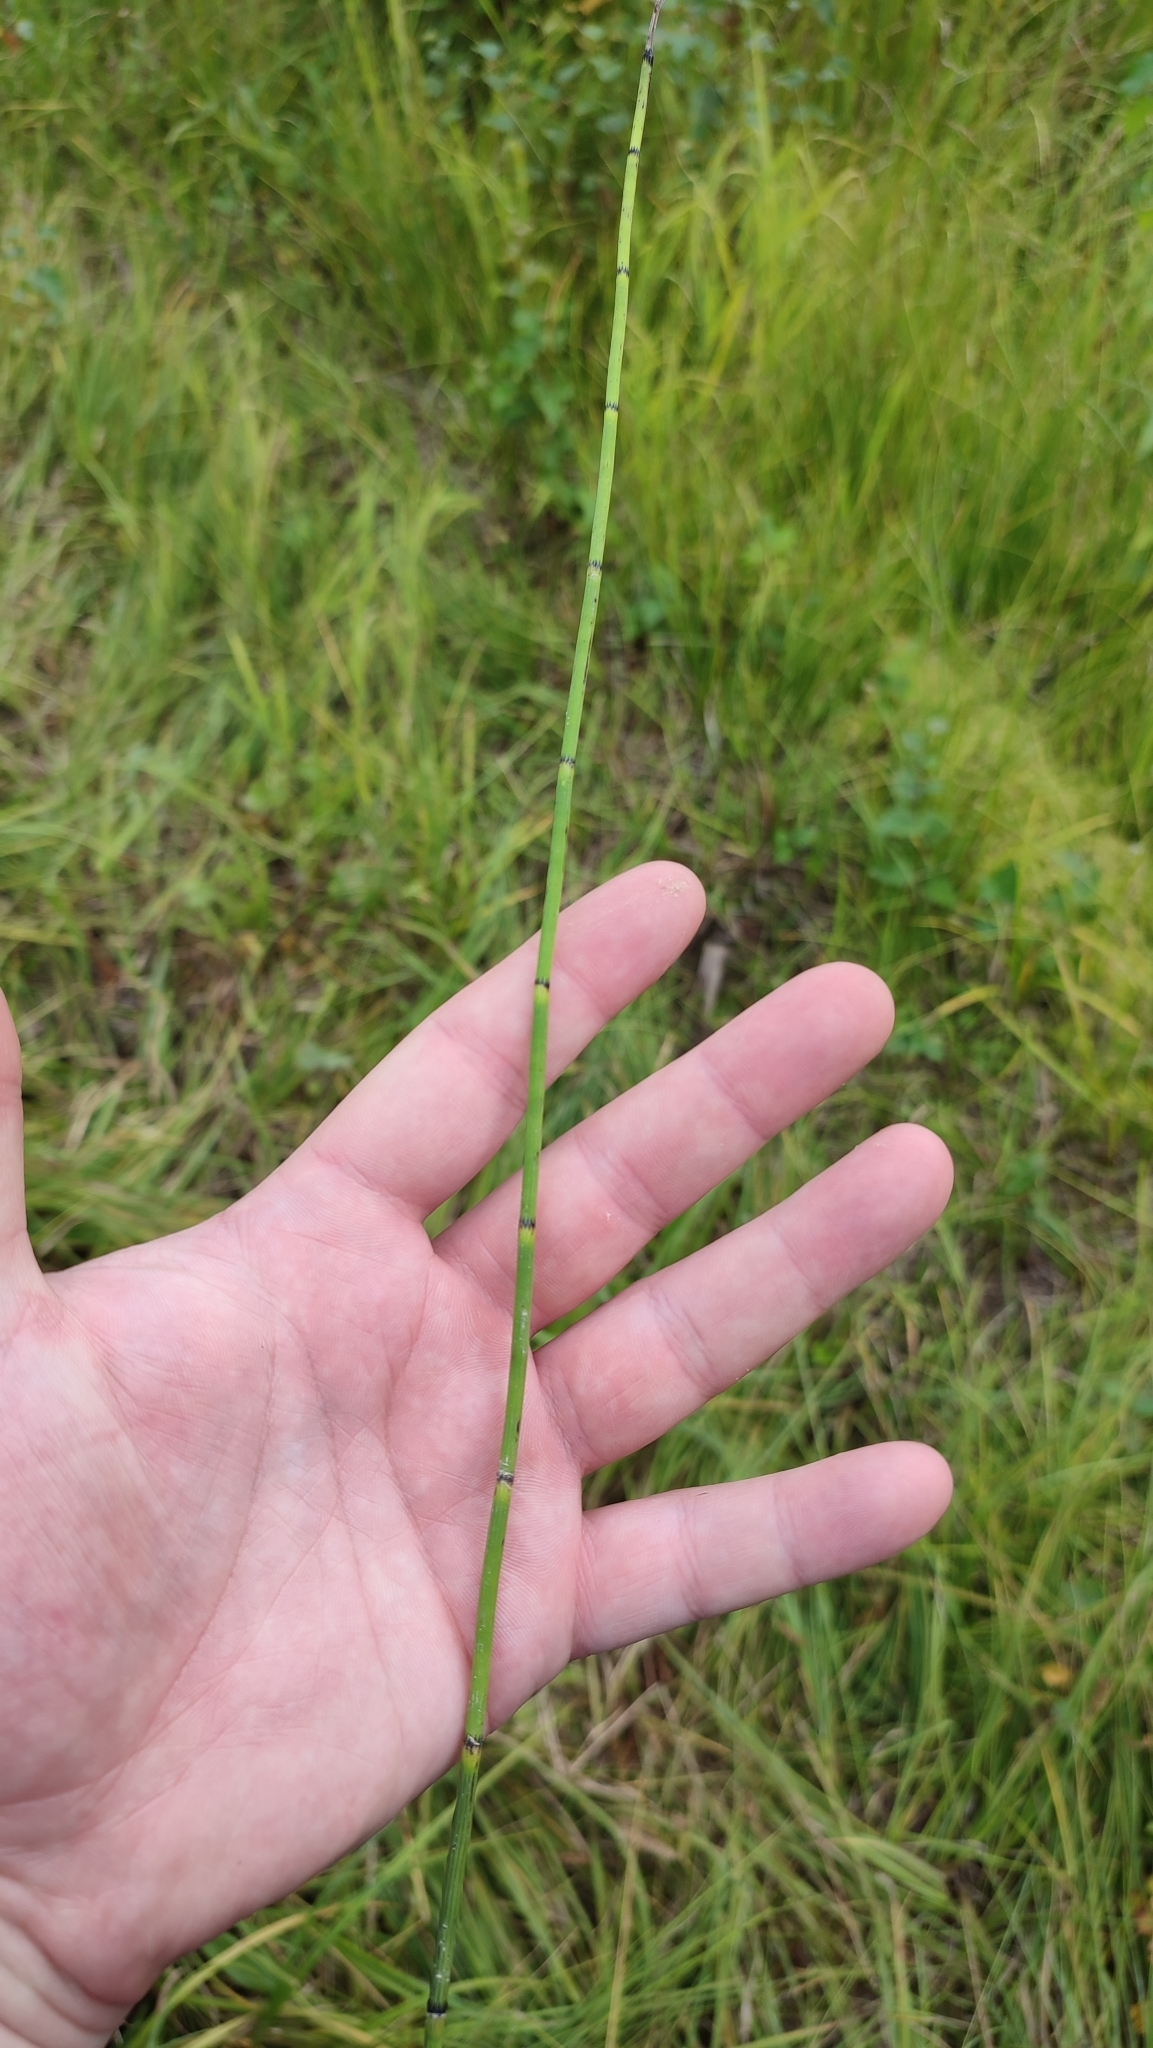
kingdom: Plantae
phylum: Tracheophyta
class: Polypodiopsida
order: Equisetales
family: Equisetaceae
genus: Equisetum
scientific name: Equisetum fluviatile
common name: Water horsetail
